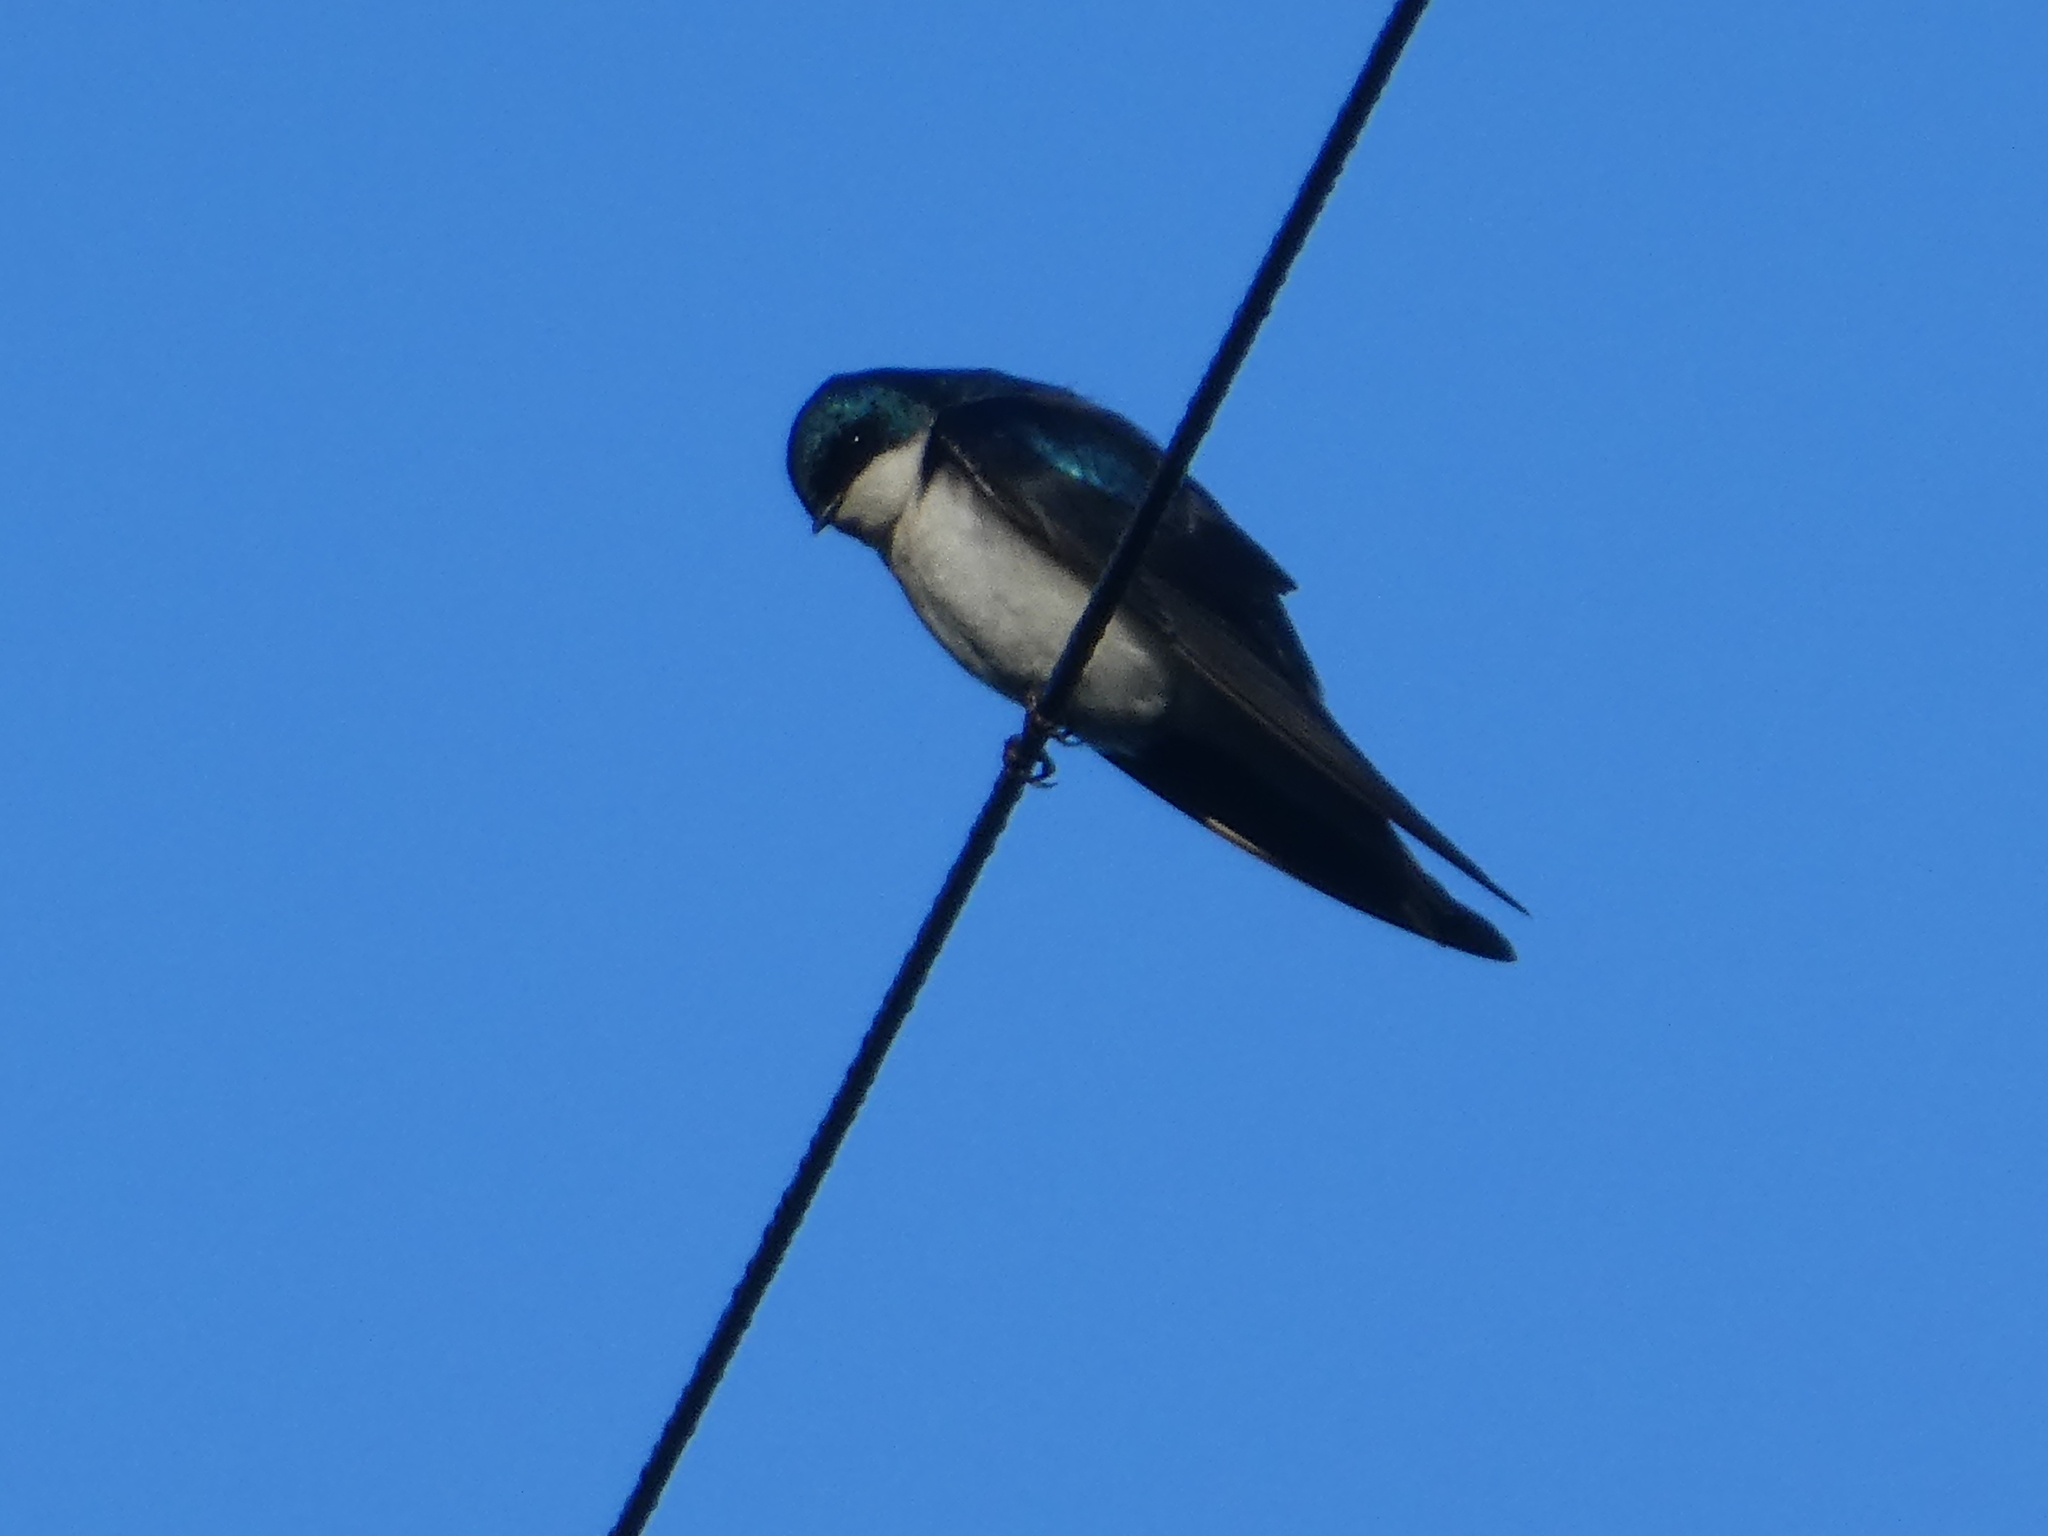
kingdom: Animalia
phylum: Chordata
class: Aves
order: Passeriformes
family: Hirundinidae
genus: Tachycineta
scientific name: Tachycineta bicolor
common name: Tree swallow
